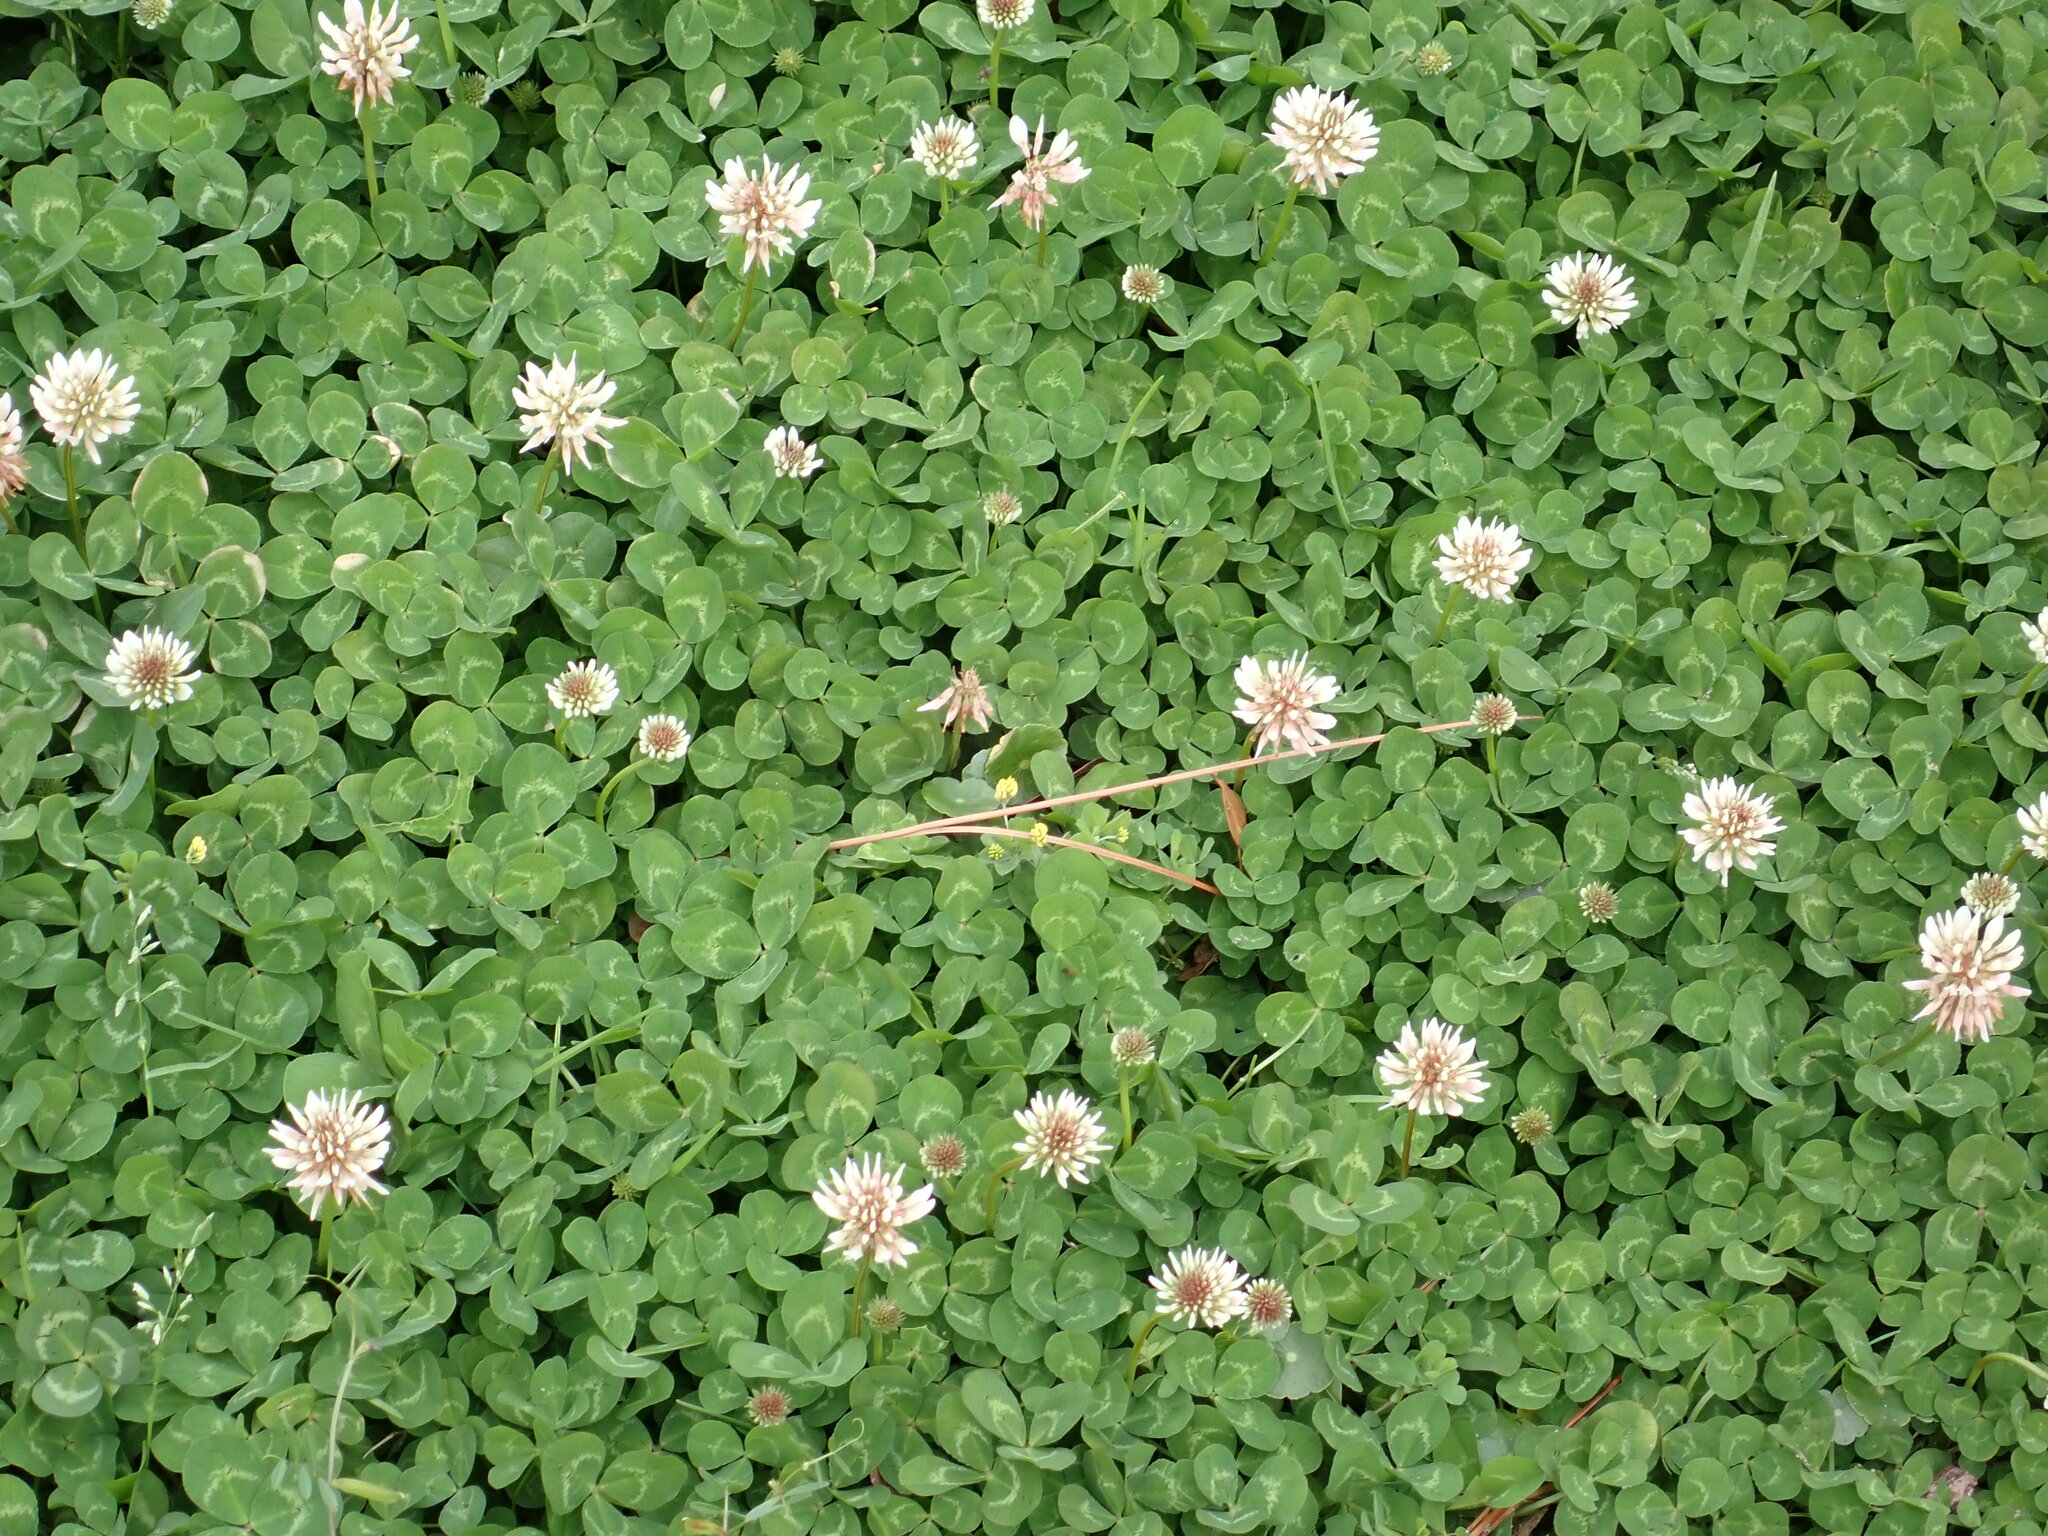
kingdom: Plantae
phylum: Tracheophyta
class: Magnoliopsida
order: Fabales
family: Fabaceae
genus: Trifolium
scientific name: Trifolium repens
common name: White clover
